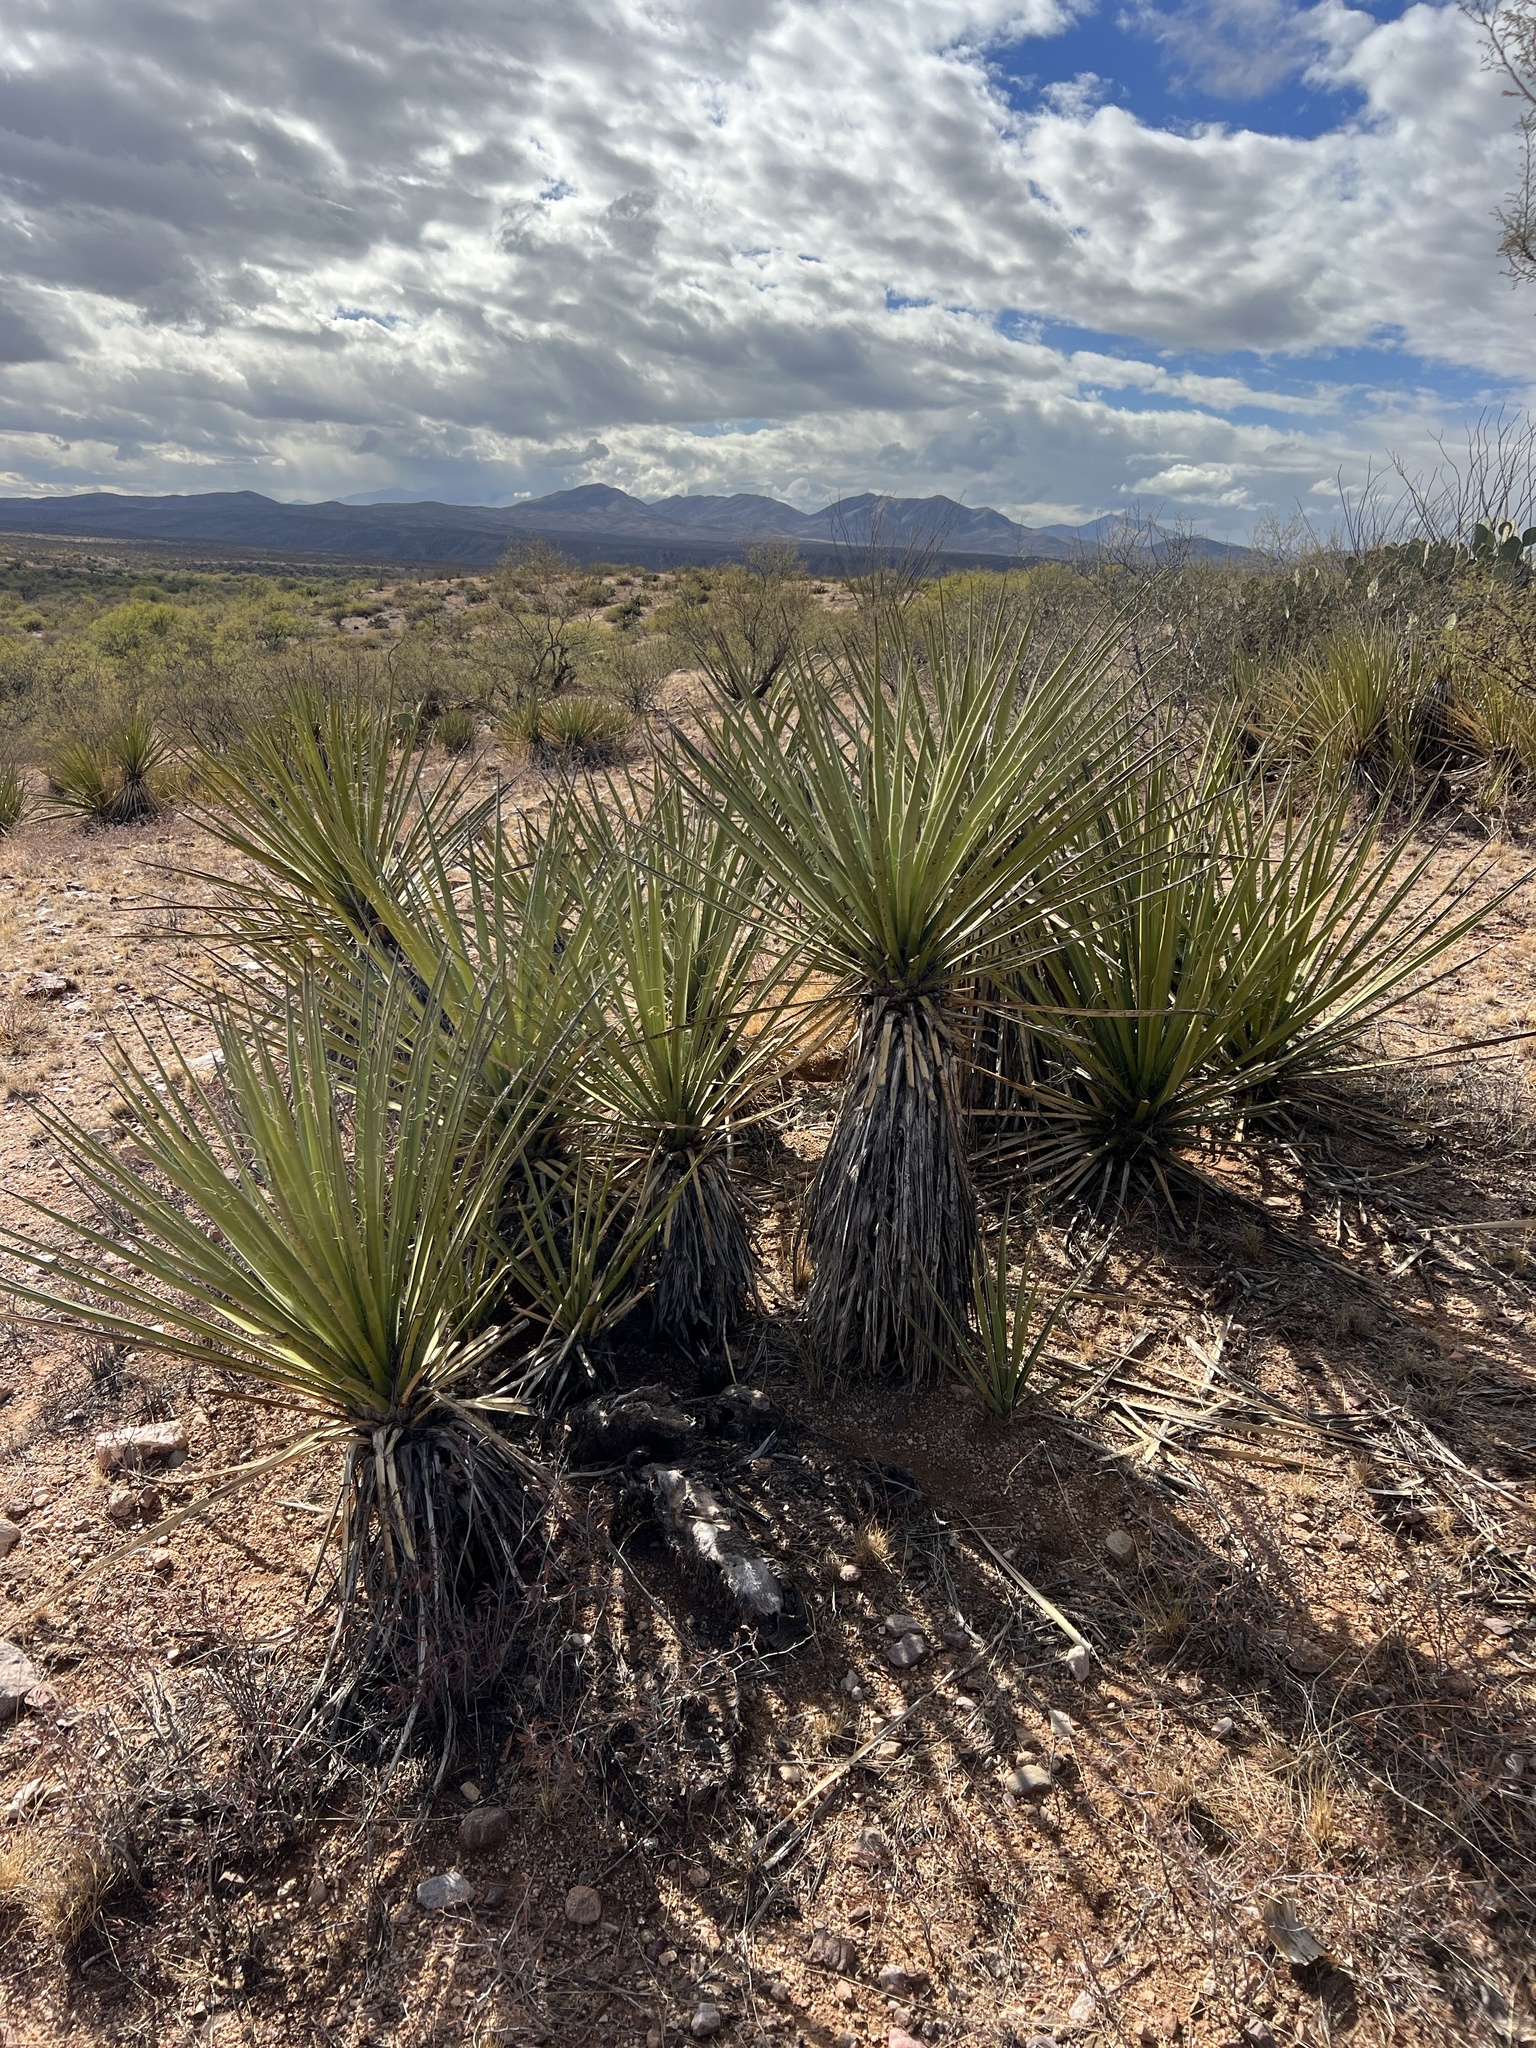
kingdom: Plantae
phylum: Tracheophyta
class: Liliopsida
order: Asparagales
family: Asparagaceae
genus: Yucca
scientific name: Yucca baccata
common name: Banana yucca
